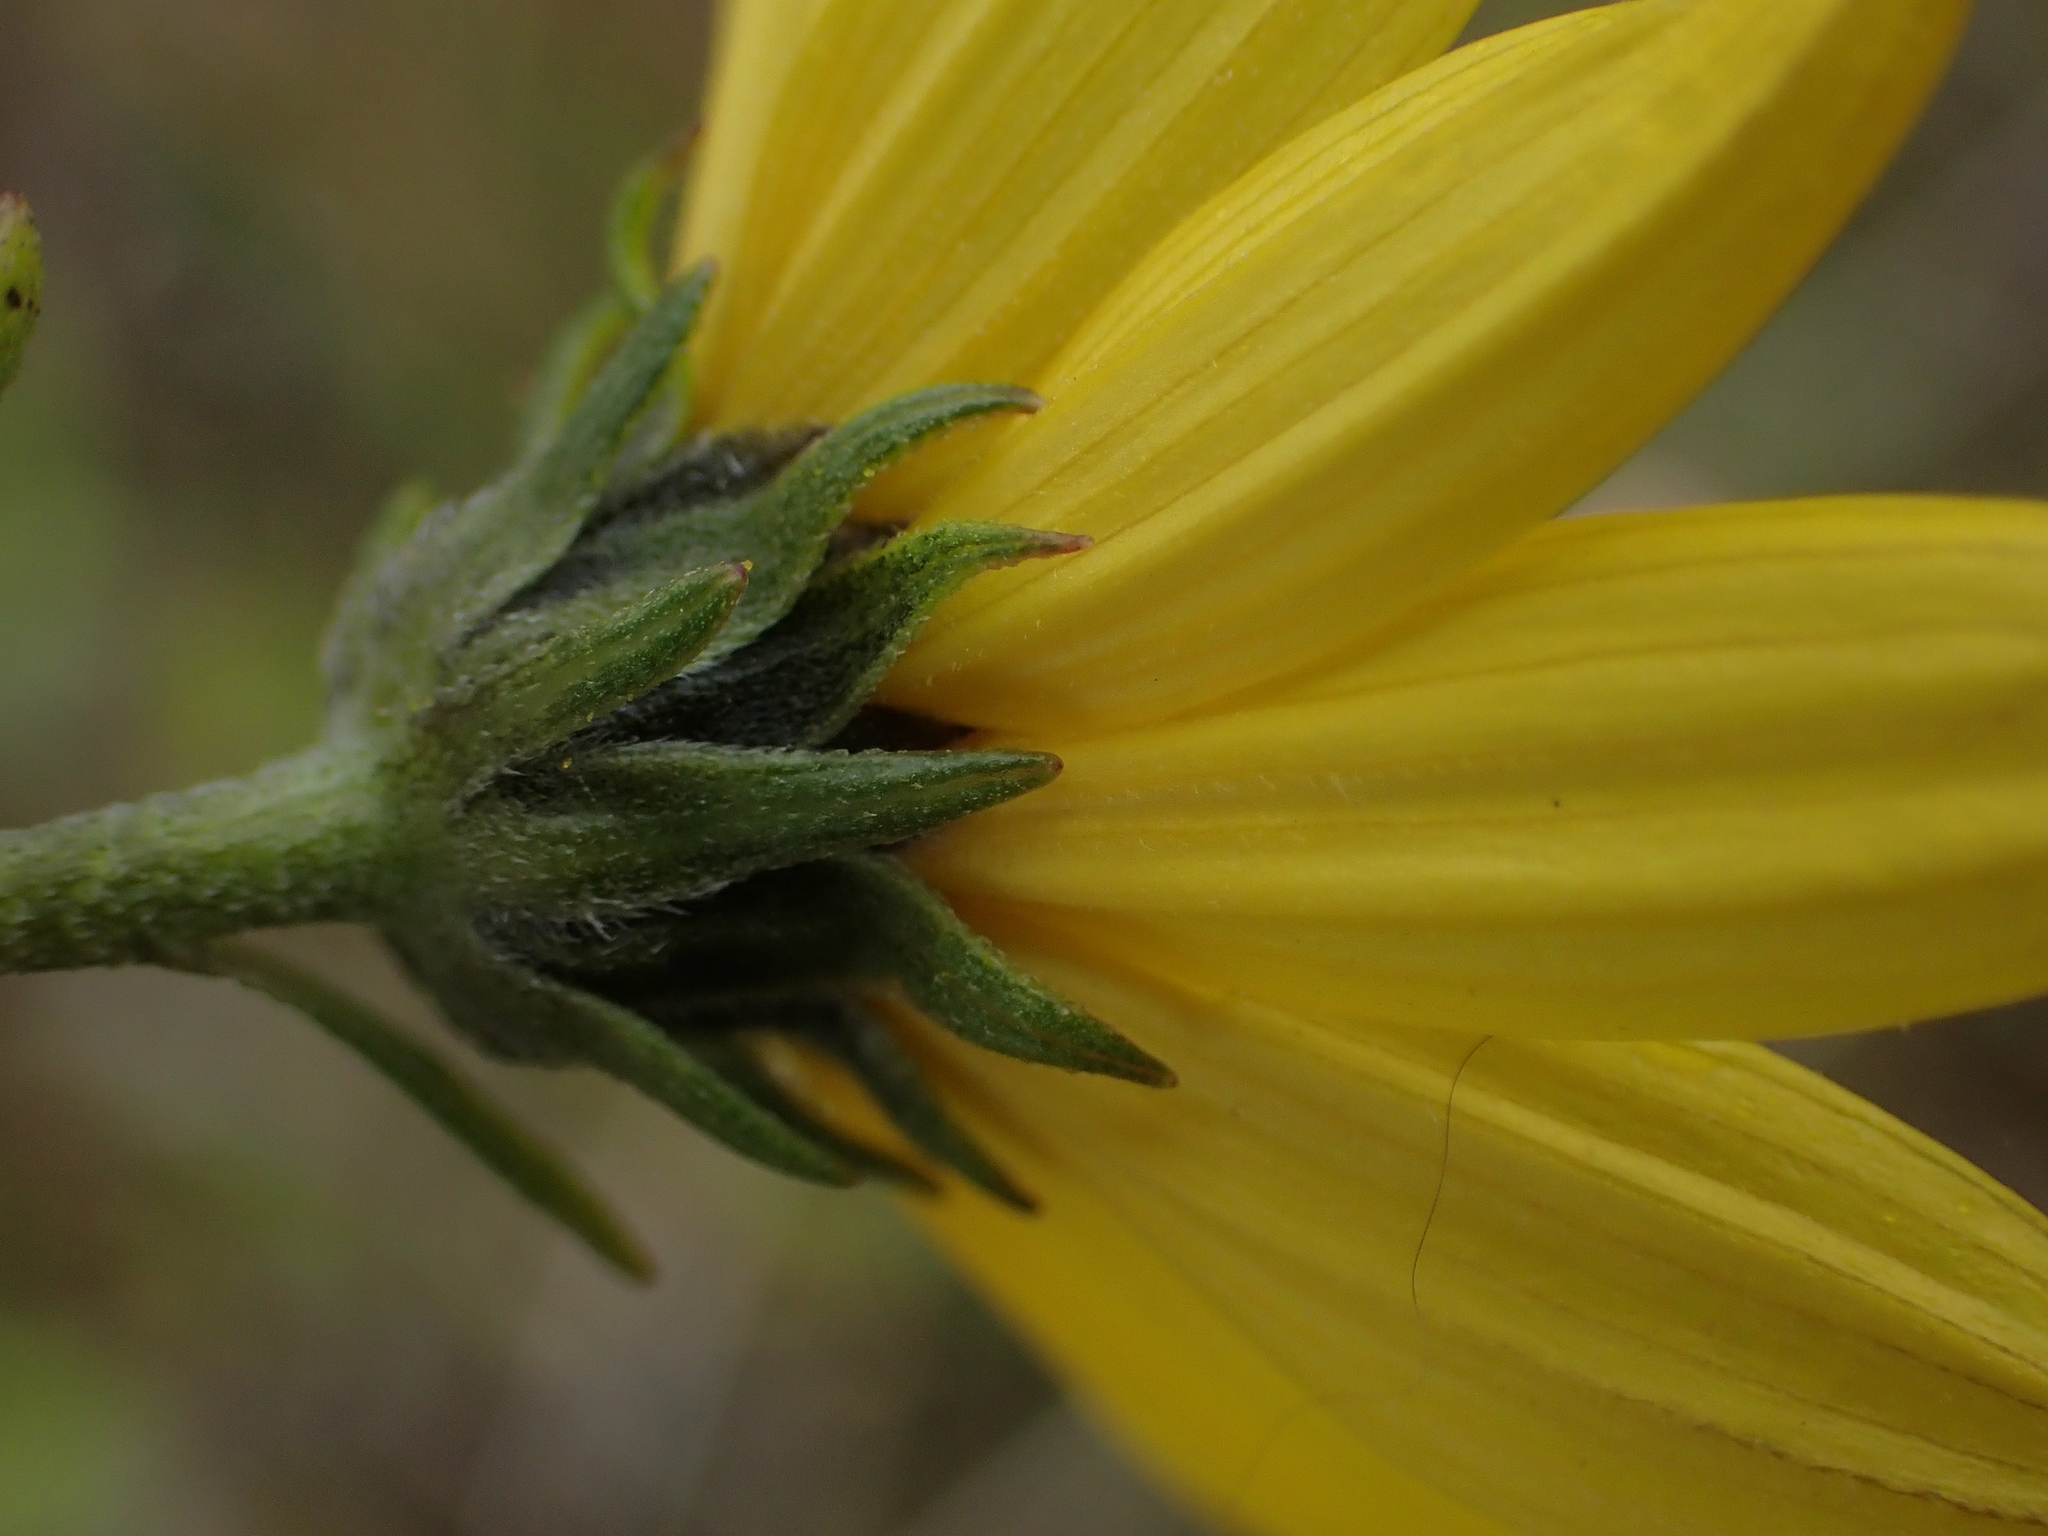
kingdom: Plantae
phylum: Tracheophyta
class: Magnoliopsida
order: Asterales
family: Asteraceae
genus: Helianthus
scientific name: Helianthus nuttallii
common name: Nuttall's sunflower
